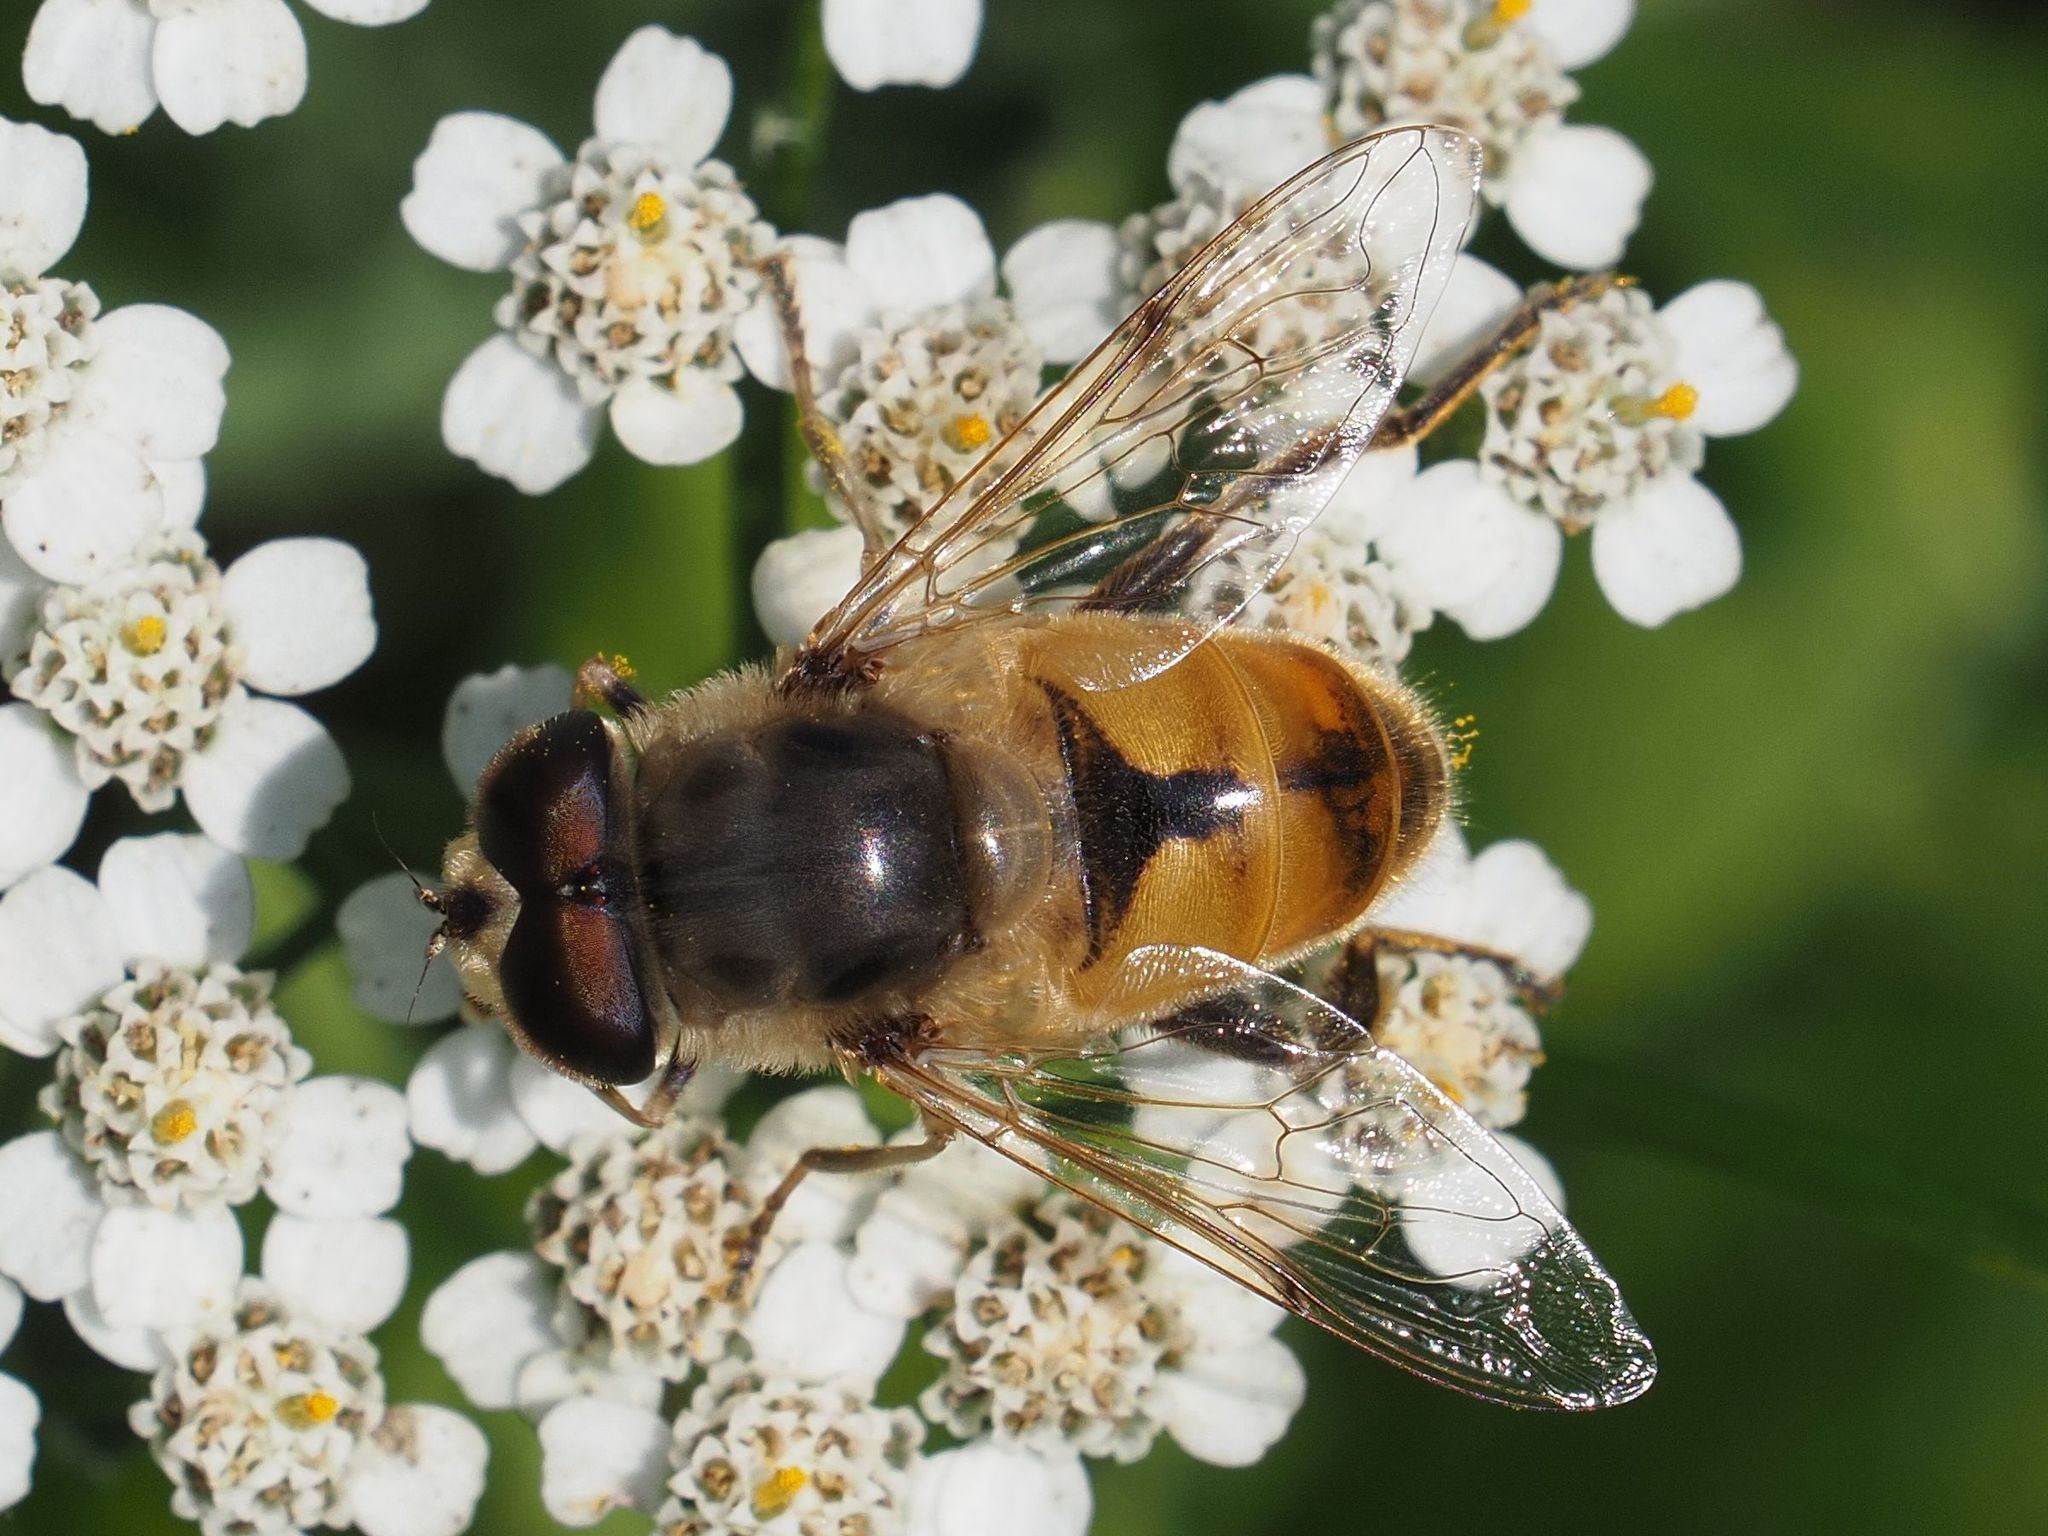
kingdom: Animalia
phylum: Arthropoda
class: Insecta
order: Diptera
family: Syrphidae
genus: Eristalis
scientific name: Eristalis tenax
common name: Drone fly
